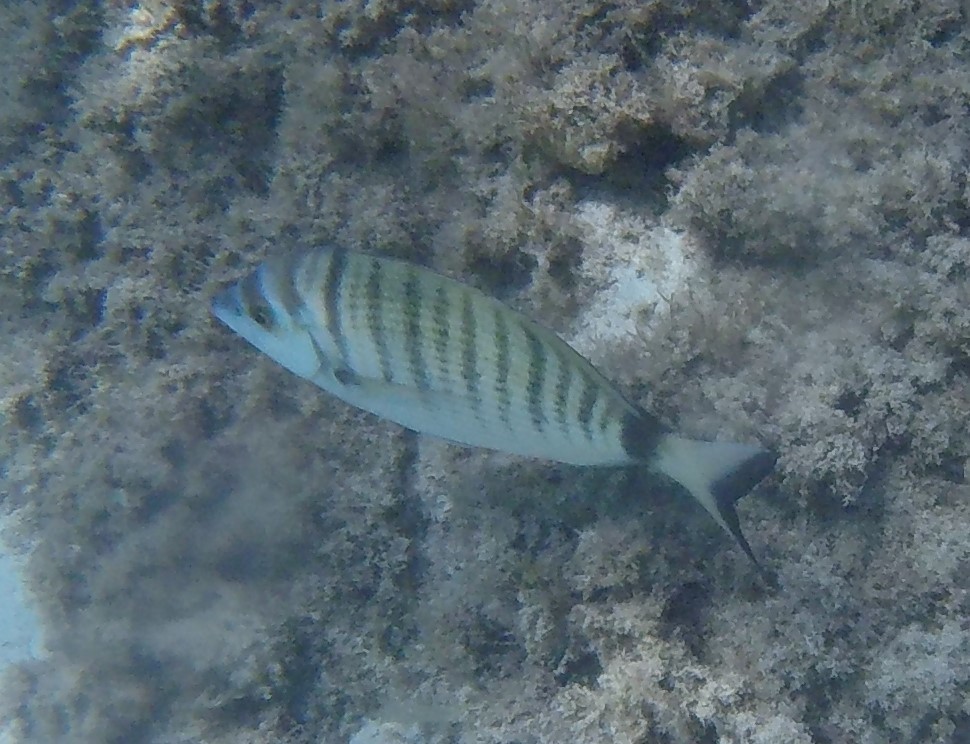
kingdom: Animalia
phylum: Chordata
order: Perciformes
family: Sparidae
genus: Diplodus
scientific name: Diplodus puntazzo
